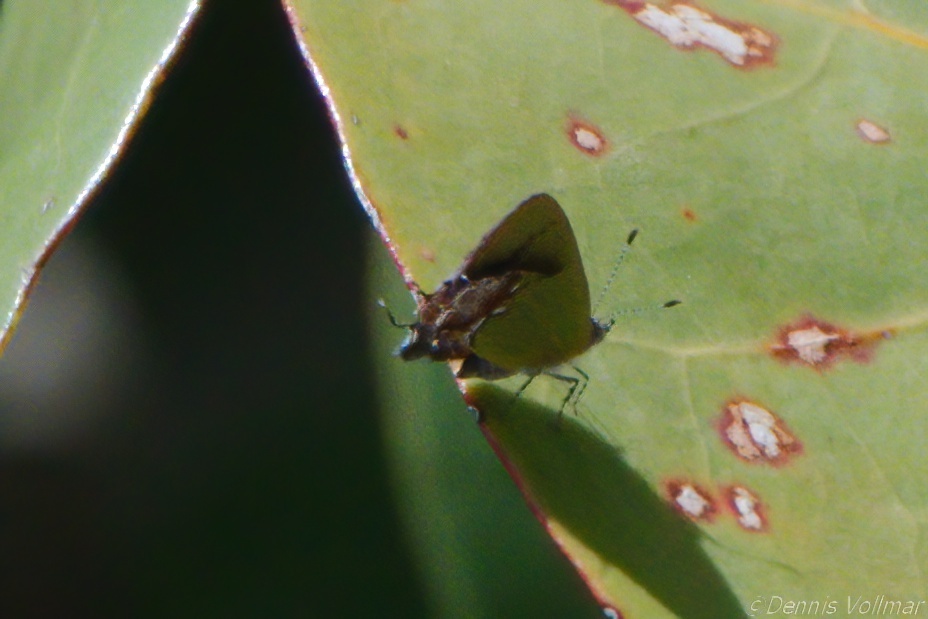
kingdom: Animalia
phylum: Arthropoda
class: Insecta
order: Lepidoptera
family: Lycaenidae
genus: Thecla
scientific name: Thecla maesites
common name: Verde azul hairstreak
